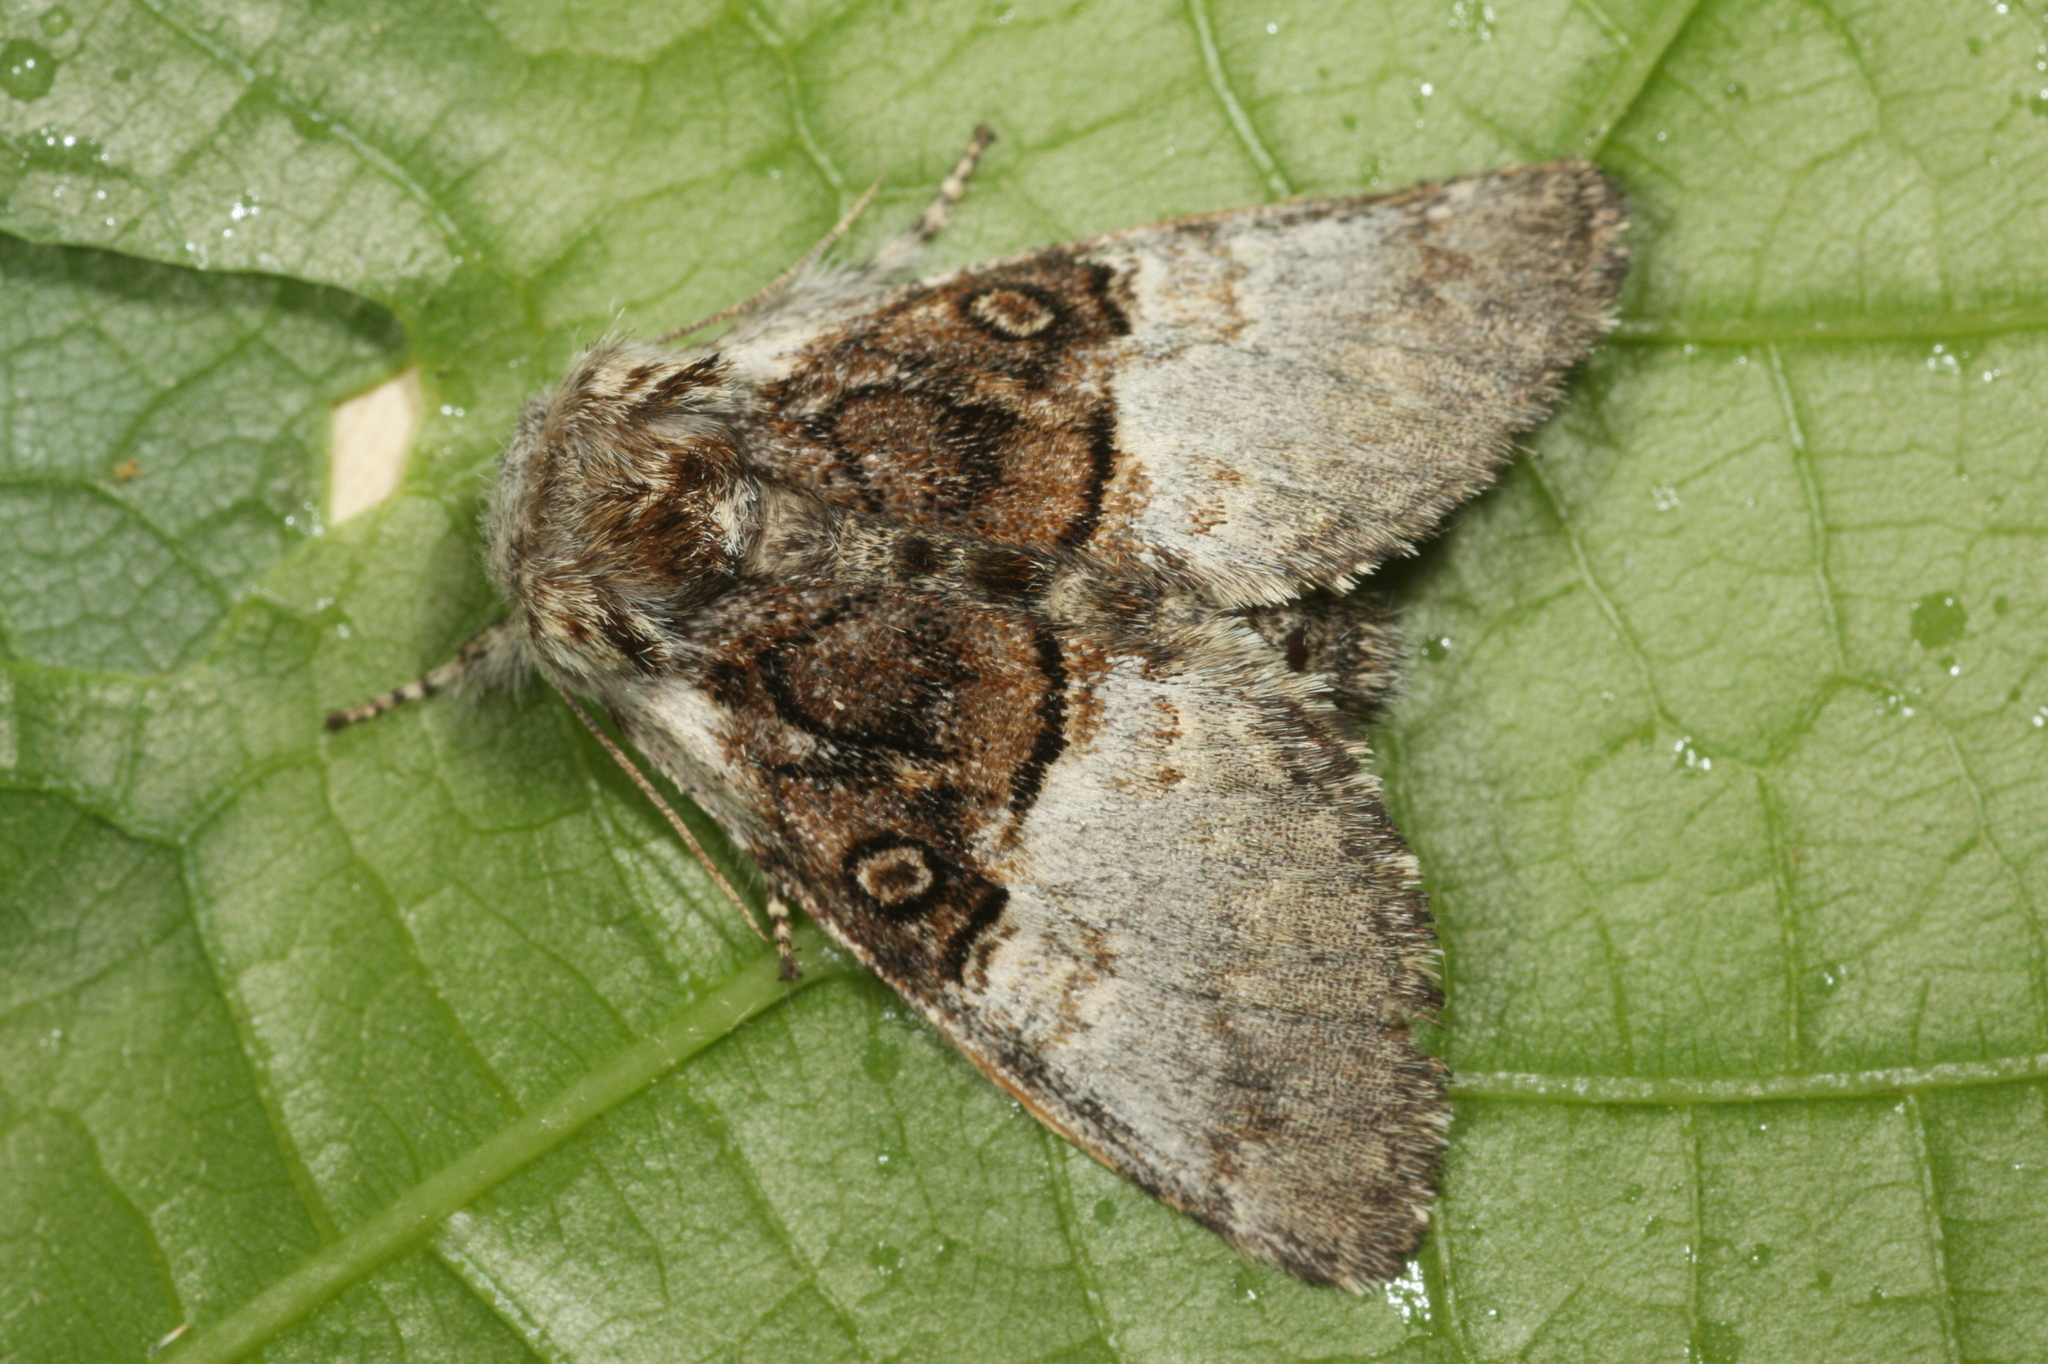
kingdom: Animalia
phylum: Arthropoda
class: Insecta
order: Lepidoptera
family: Noctuidae
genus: Colocasia
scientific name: Colocasia coryli
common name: Nut-tree tussock
